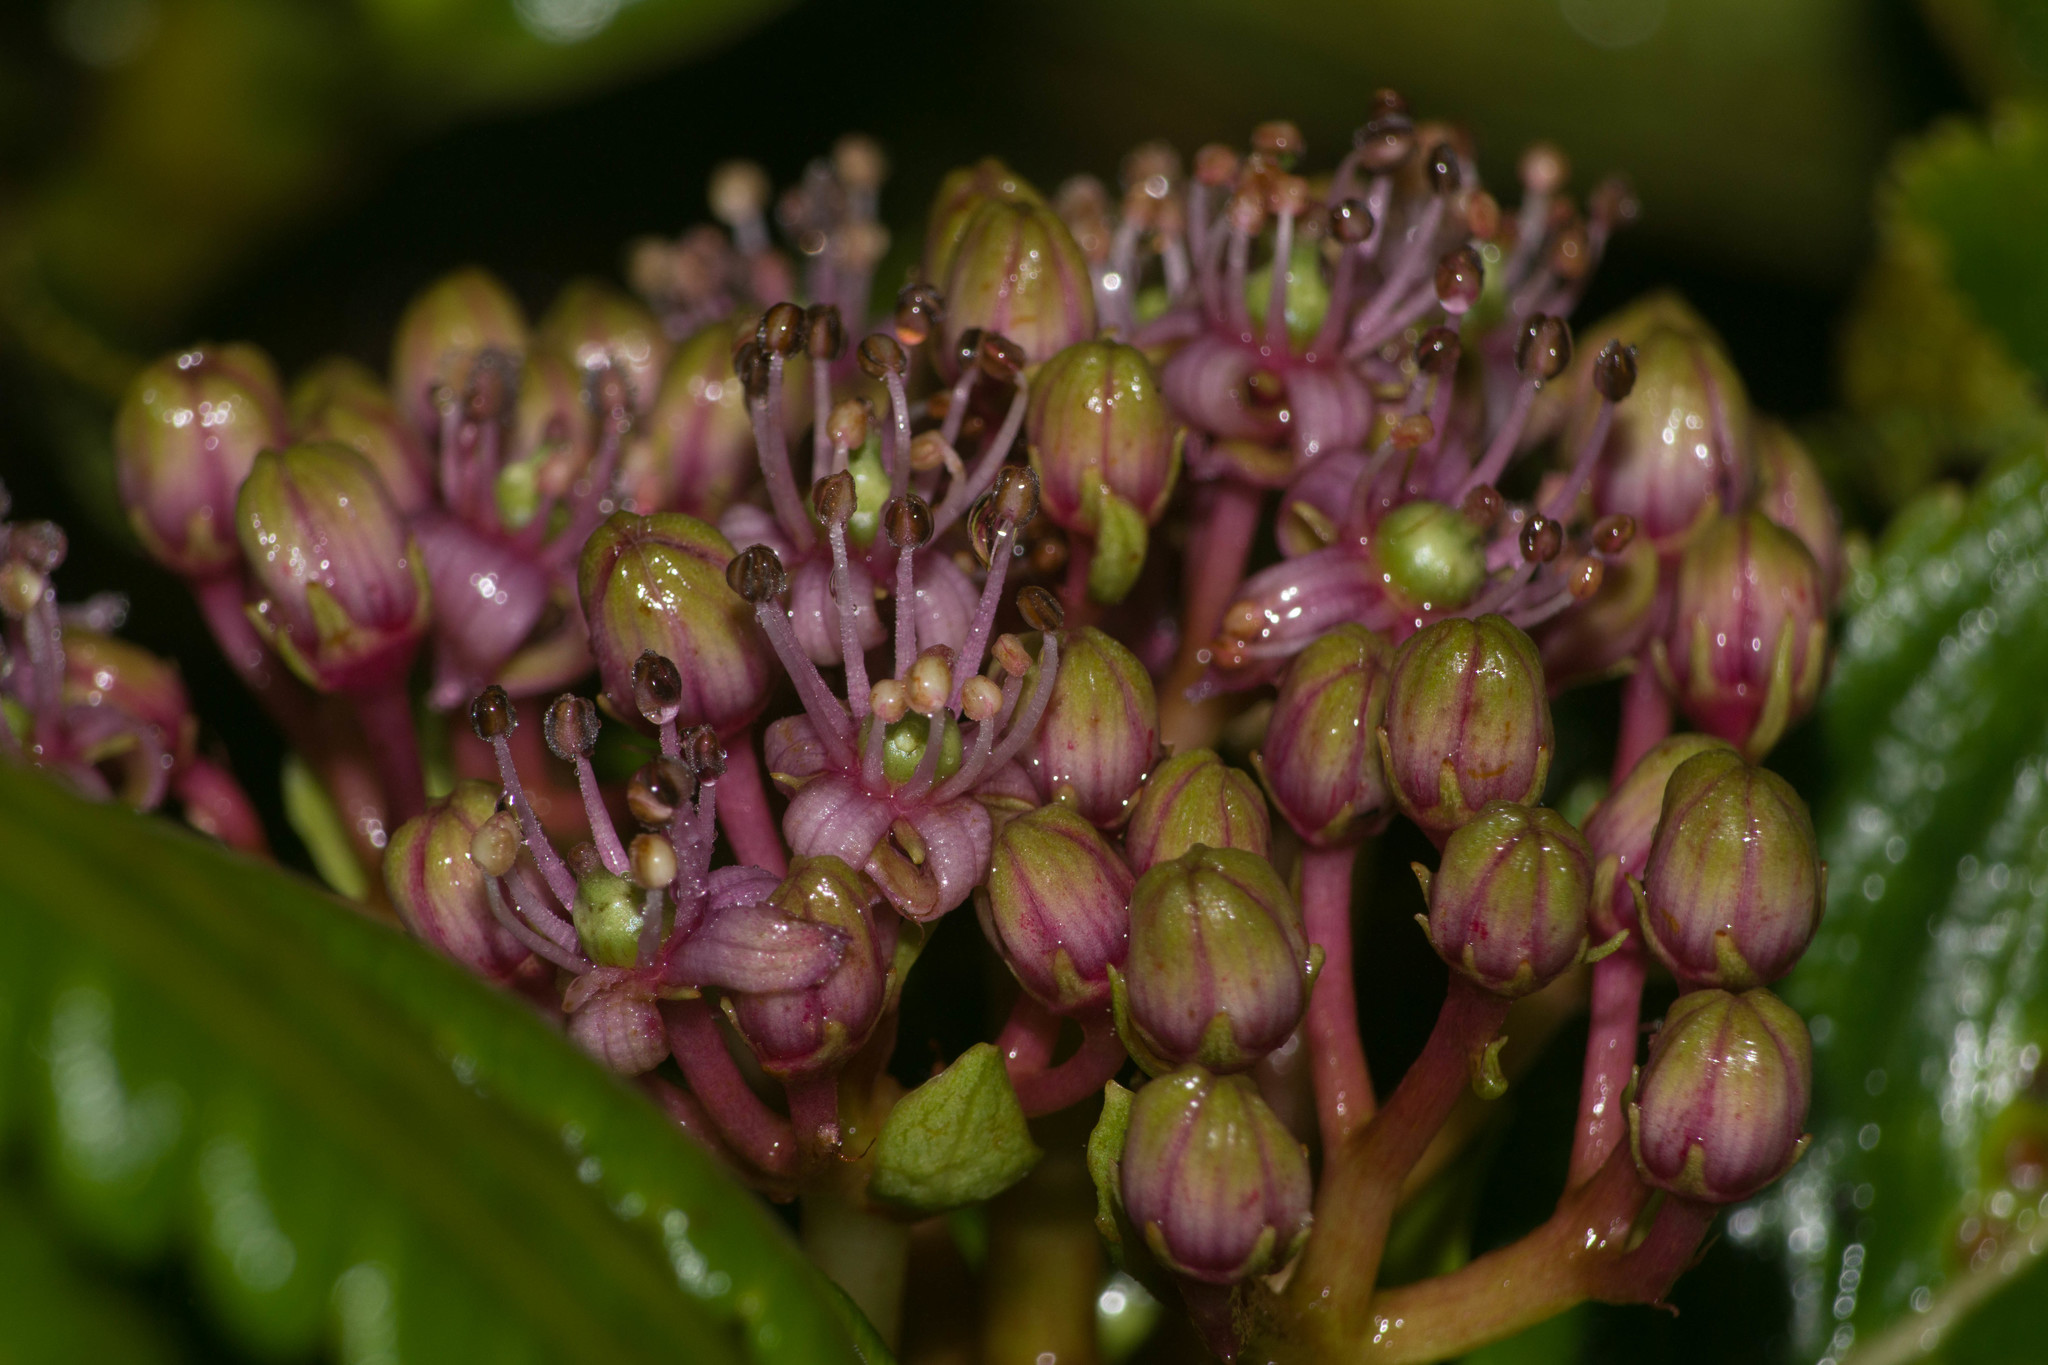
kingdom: Plantae
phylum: Tracheophyta
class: Magnoliopsida
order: Cornales
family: Hydrangeaceae
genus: Hydrangea
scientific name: Hydrangea arguta
